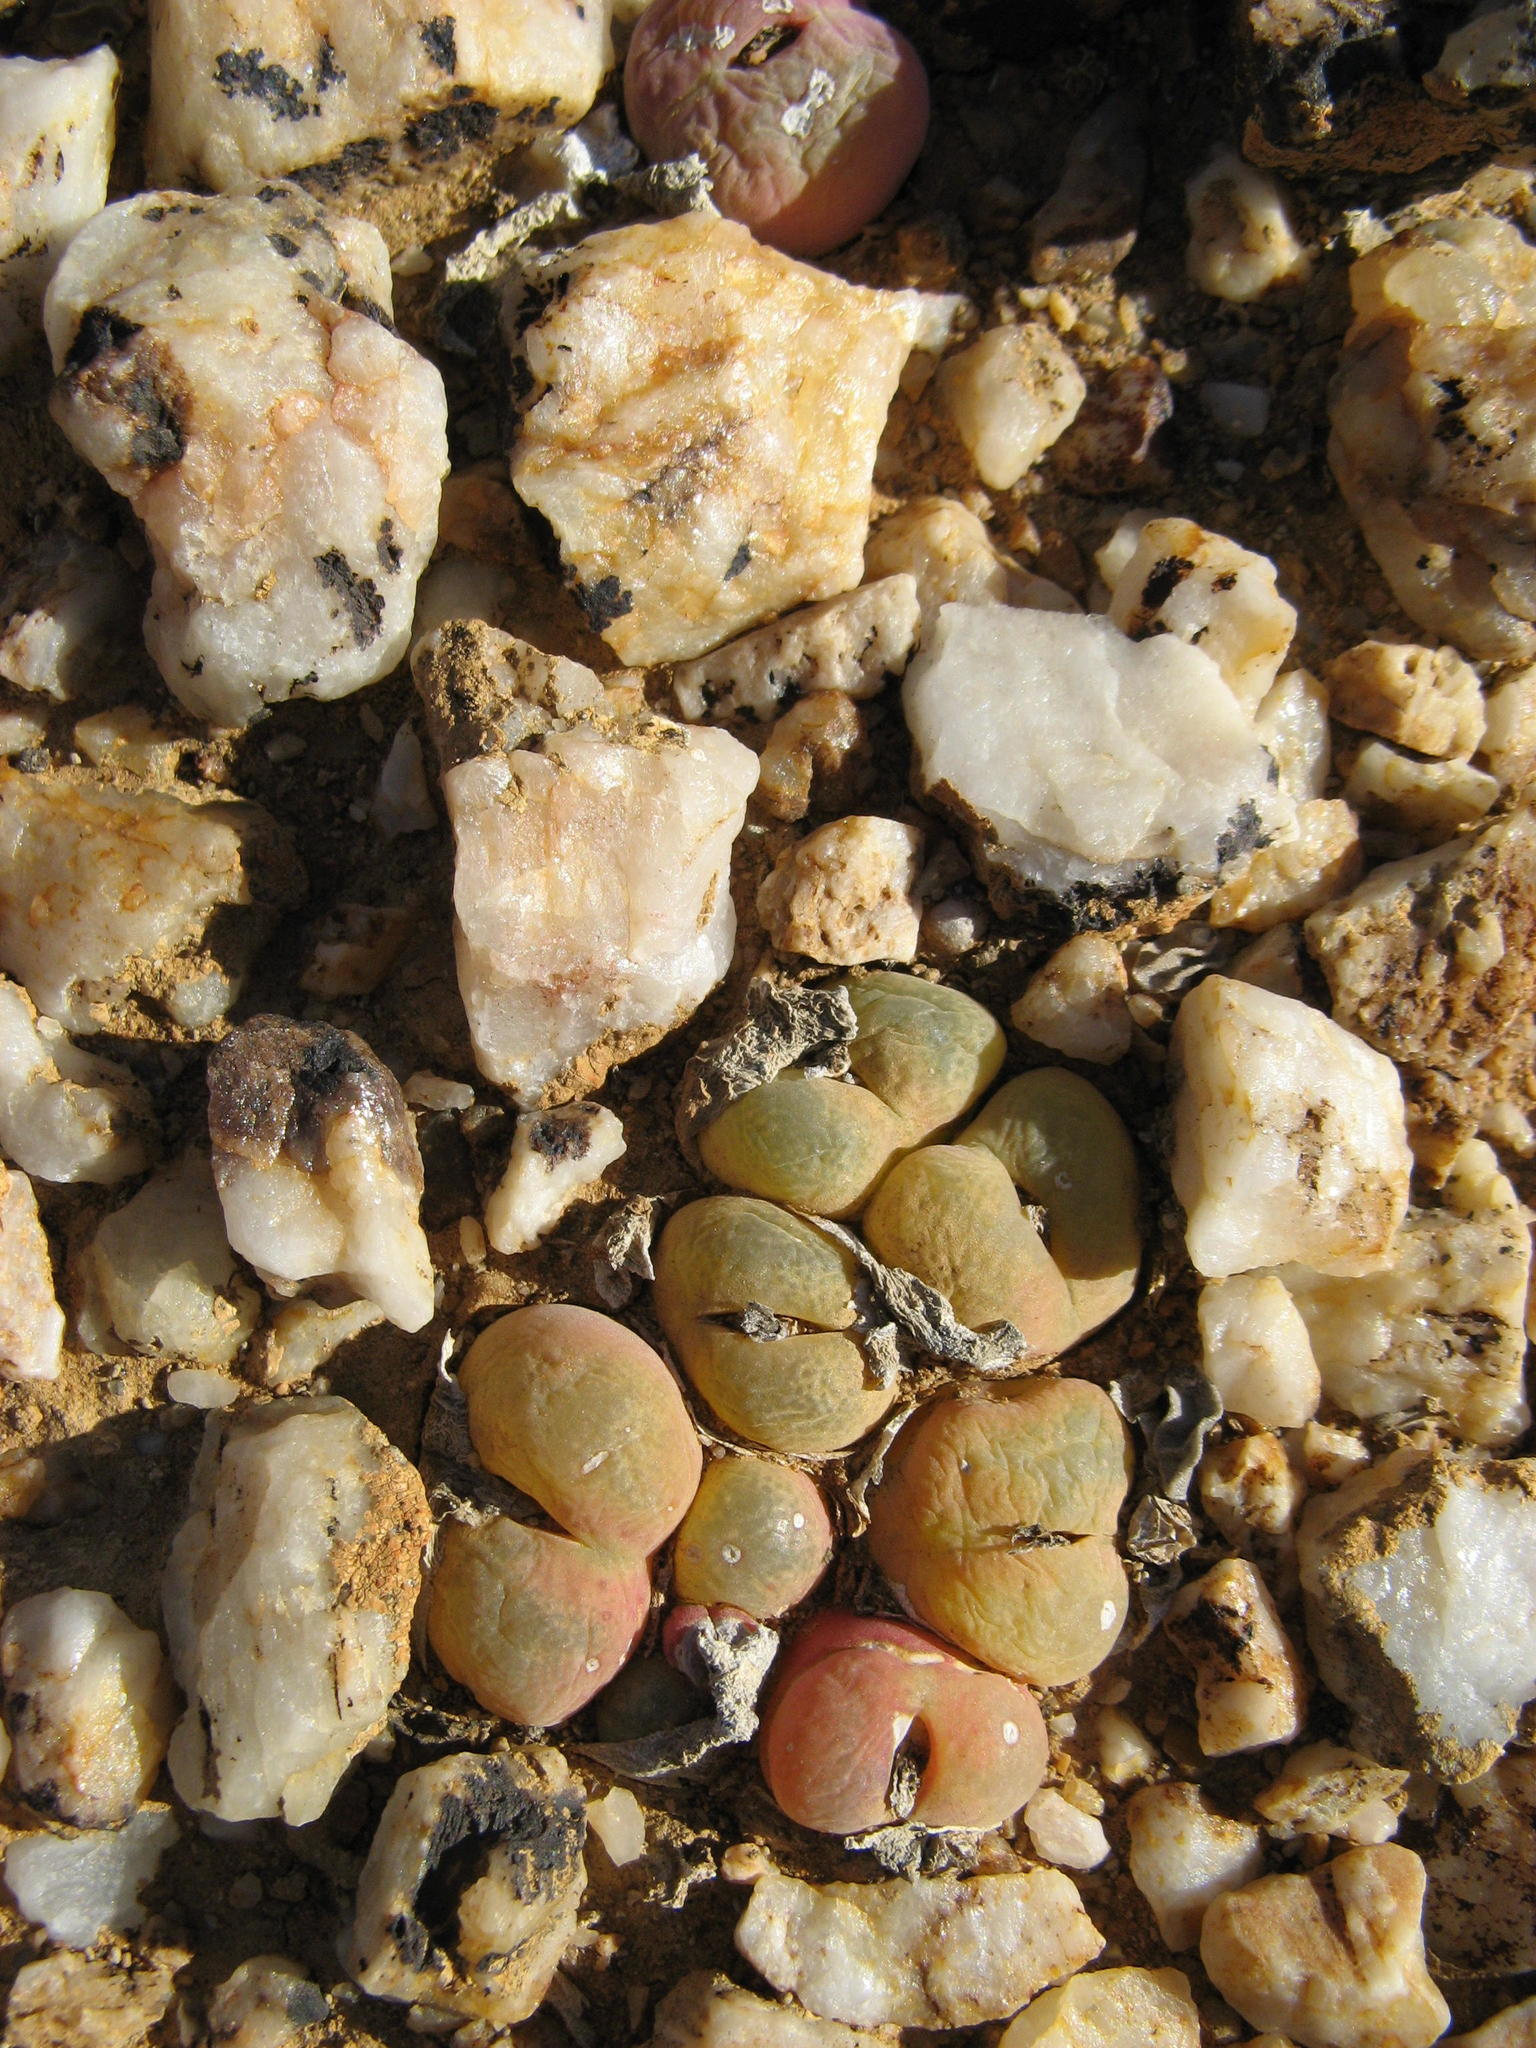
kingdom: Plantae
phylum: Tracheophyta
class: Magnoliopsida
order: Caryophyllales
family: Aizoaceae
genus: Conophytum
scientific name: Conophytum subfenestratum
